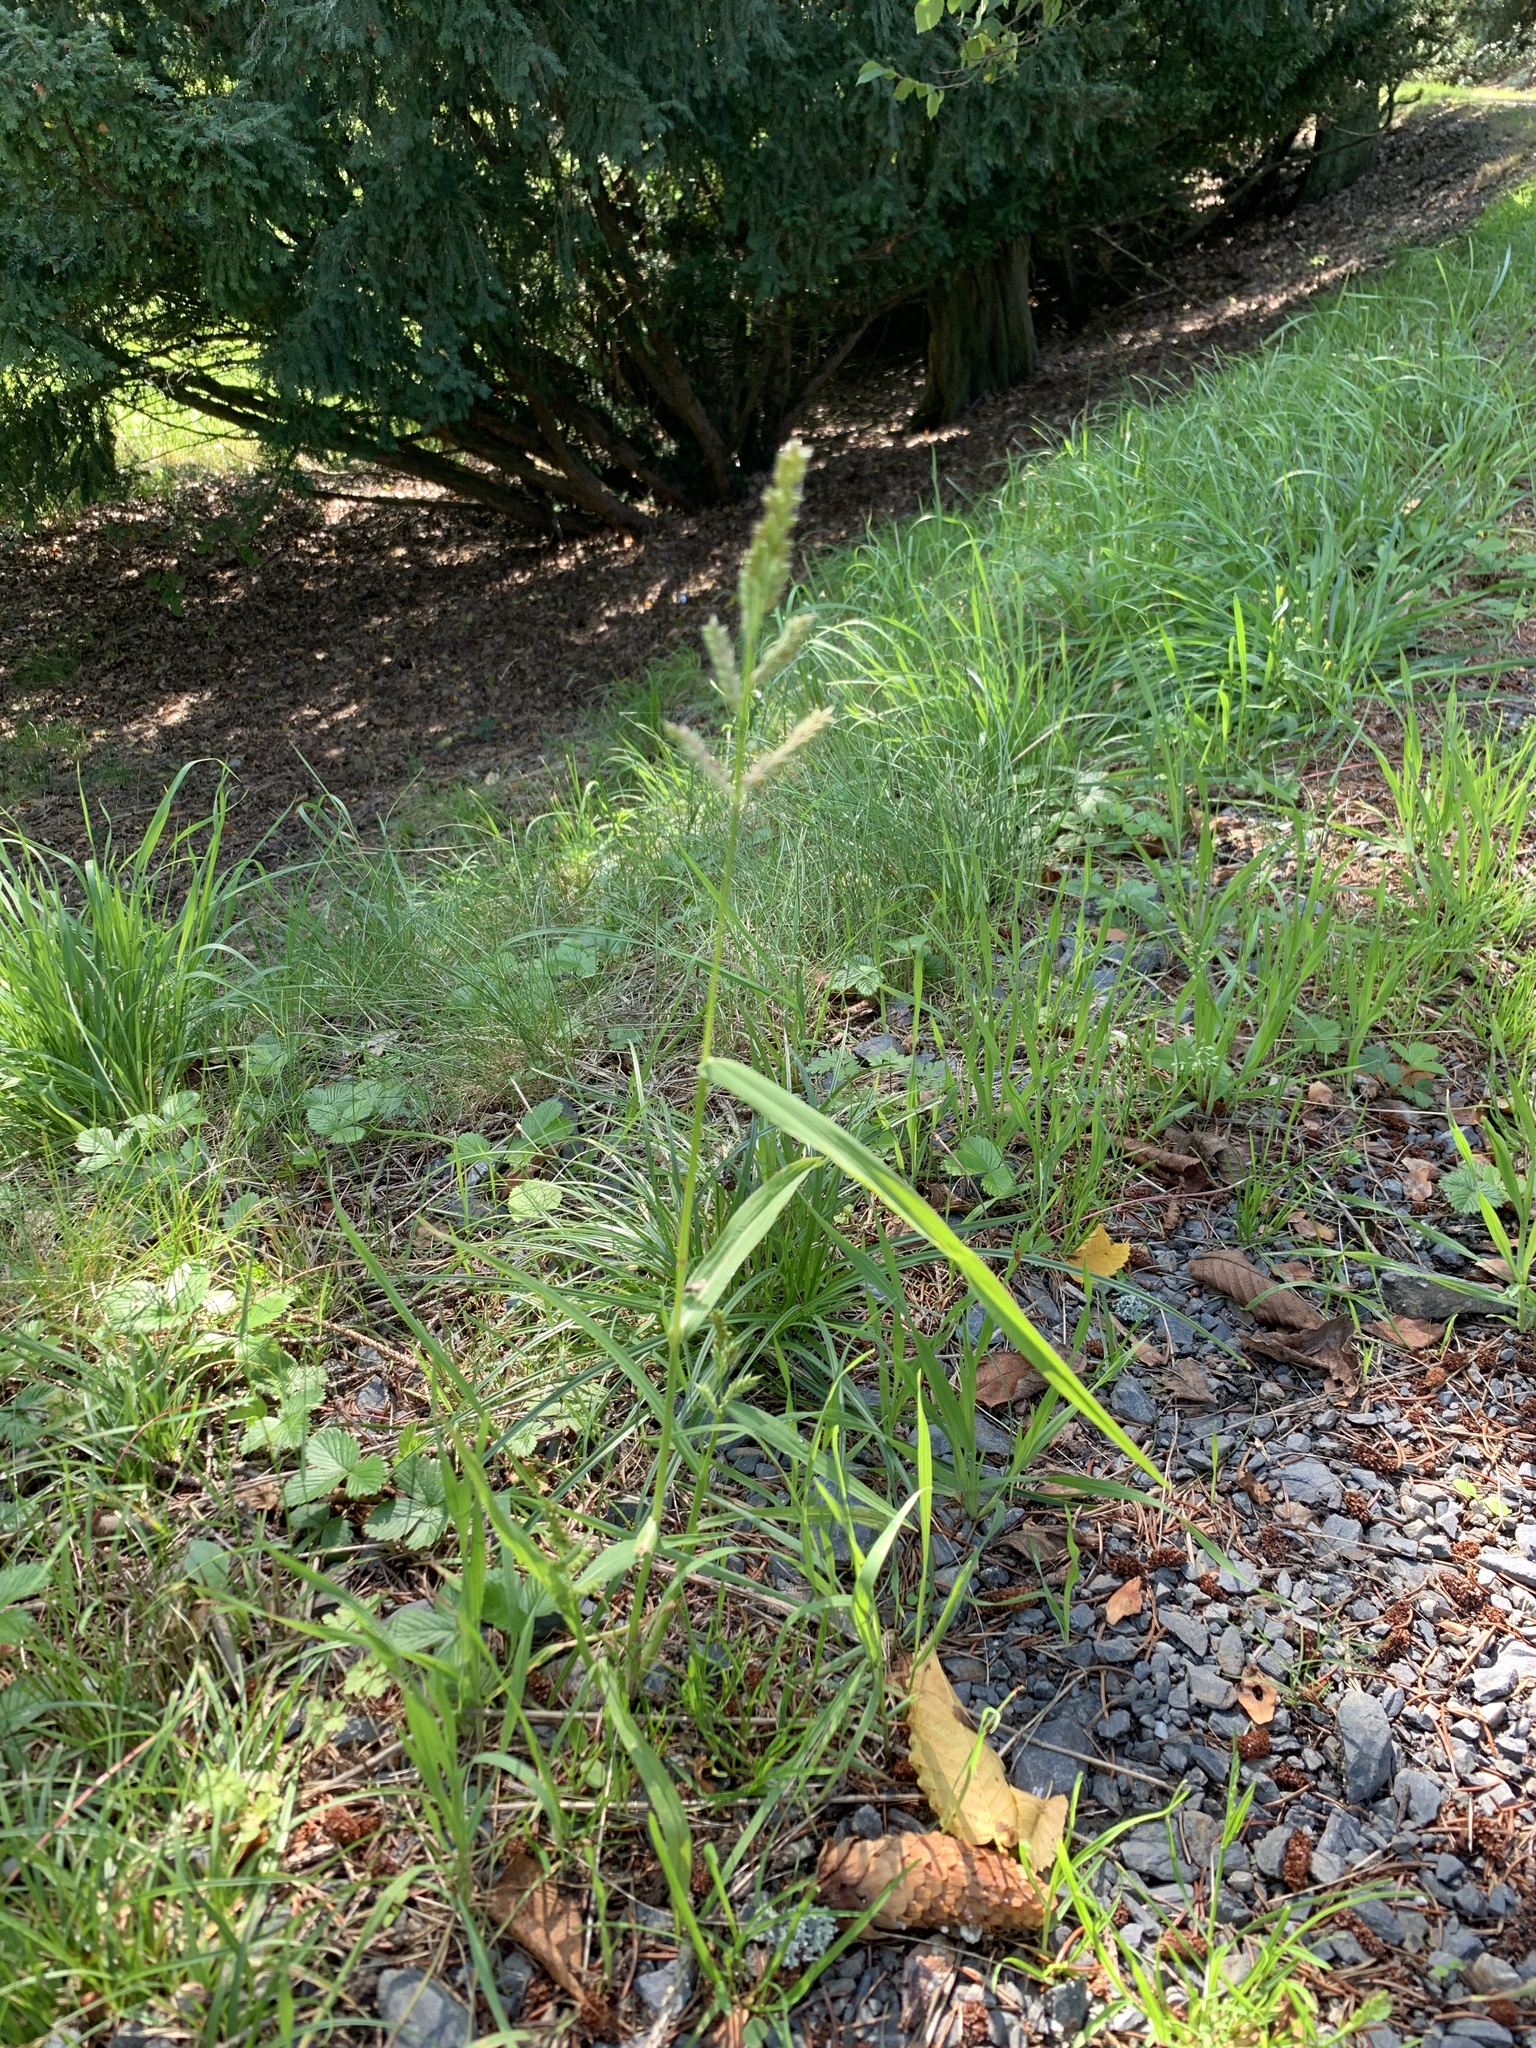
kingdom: Plantae
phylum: Tracheophyta
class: Liliopsida
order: Poales
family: Poaceae
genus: Echinochloa
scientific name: Echinochloa crus-galli
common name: Cockspur
